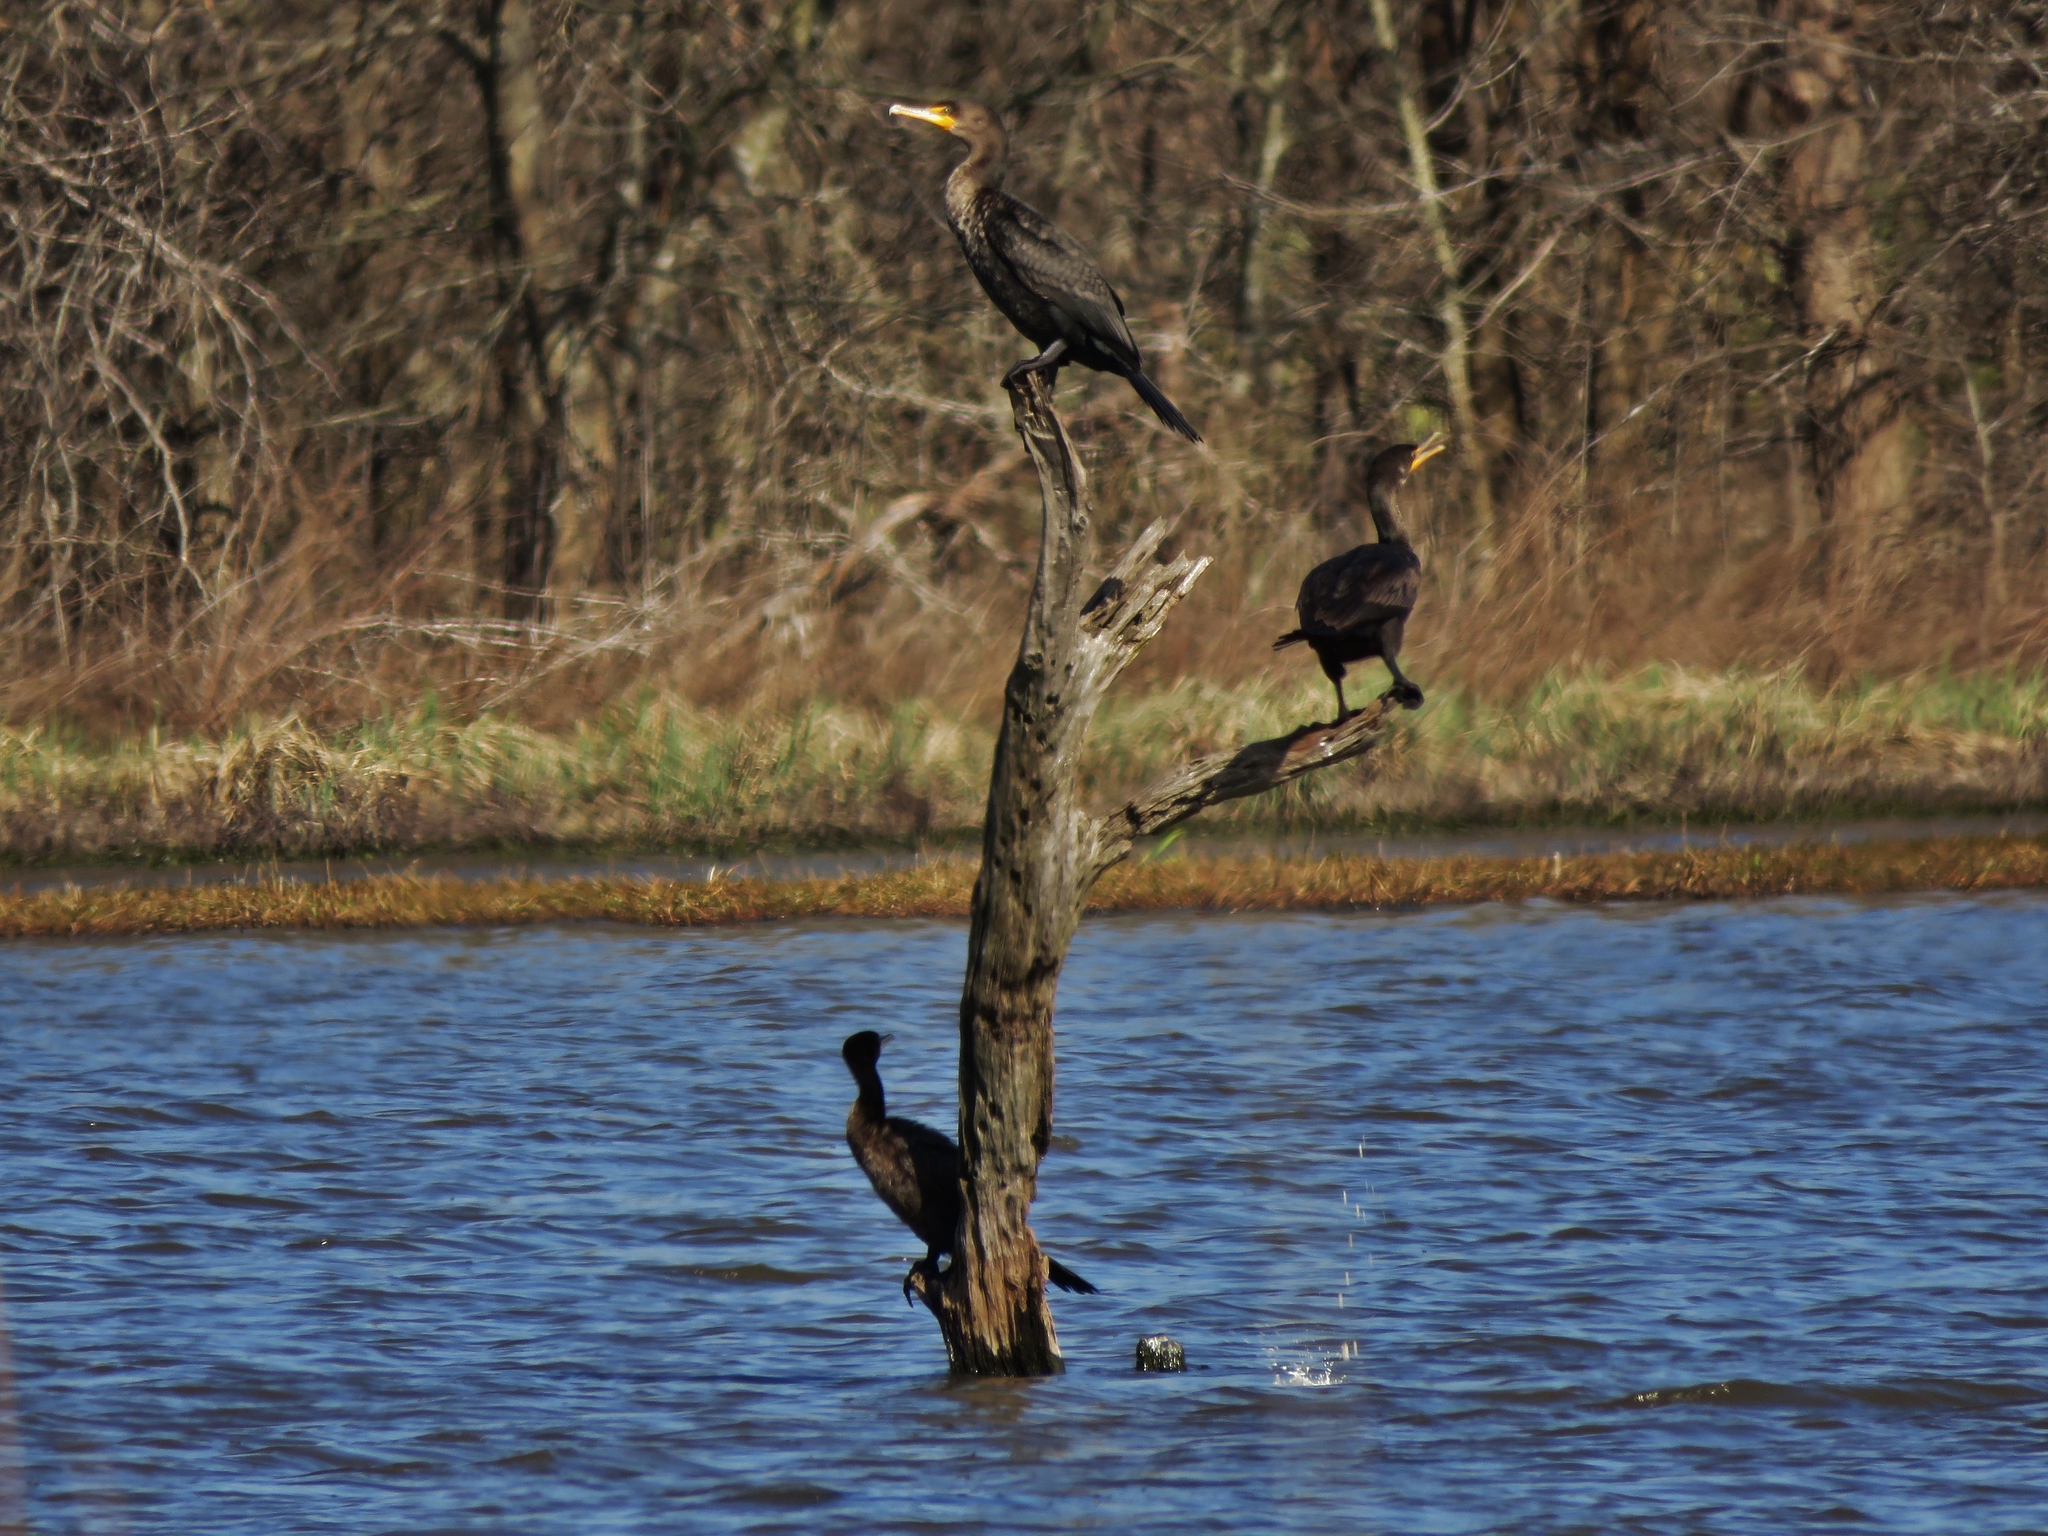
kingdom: Animalia
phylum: Chordata
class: Aves
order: Suliformes
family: Phalacrocoracidae
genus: Phalacrocorax
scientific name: Phalacrocorax auritus
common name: Double-crested cormorant
